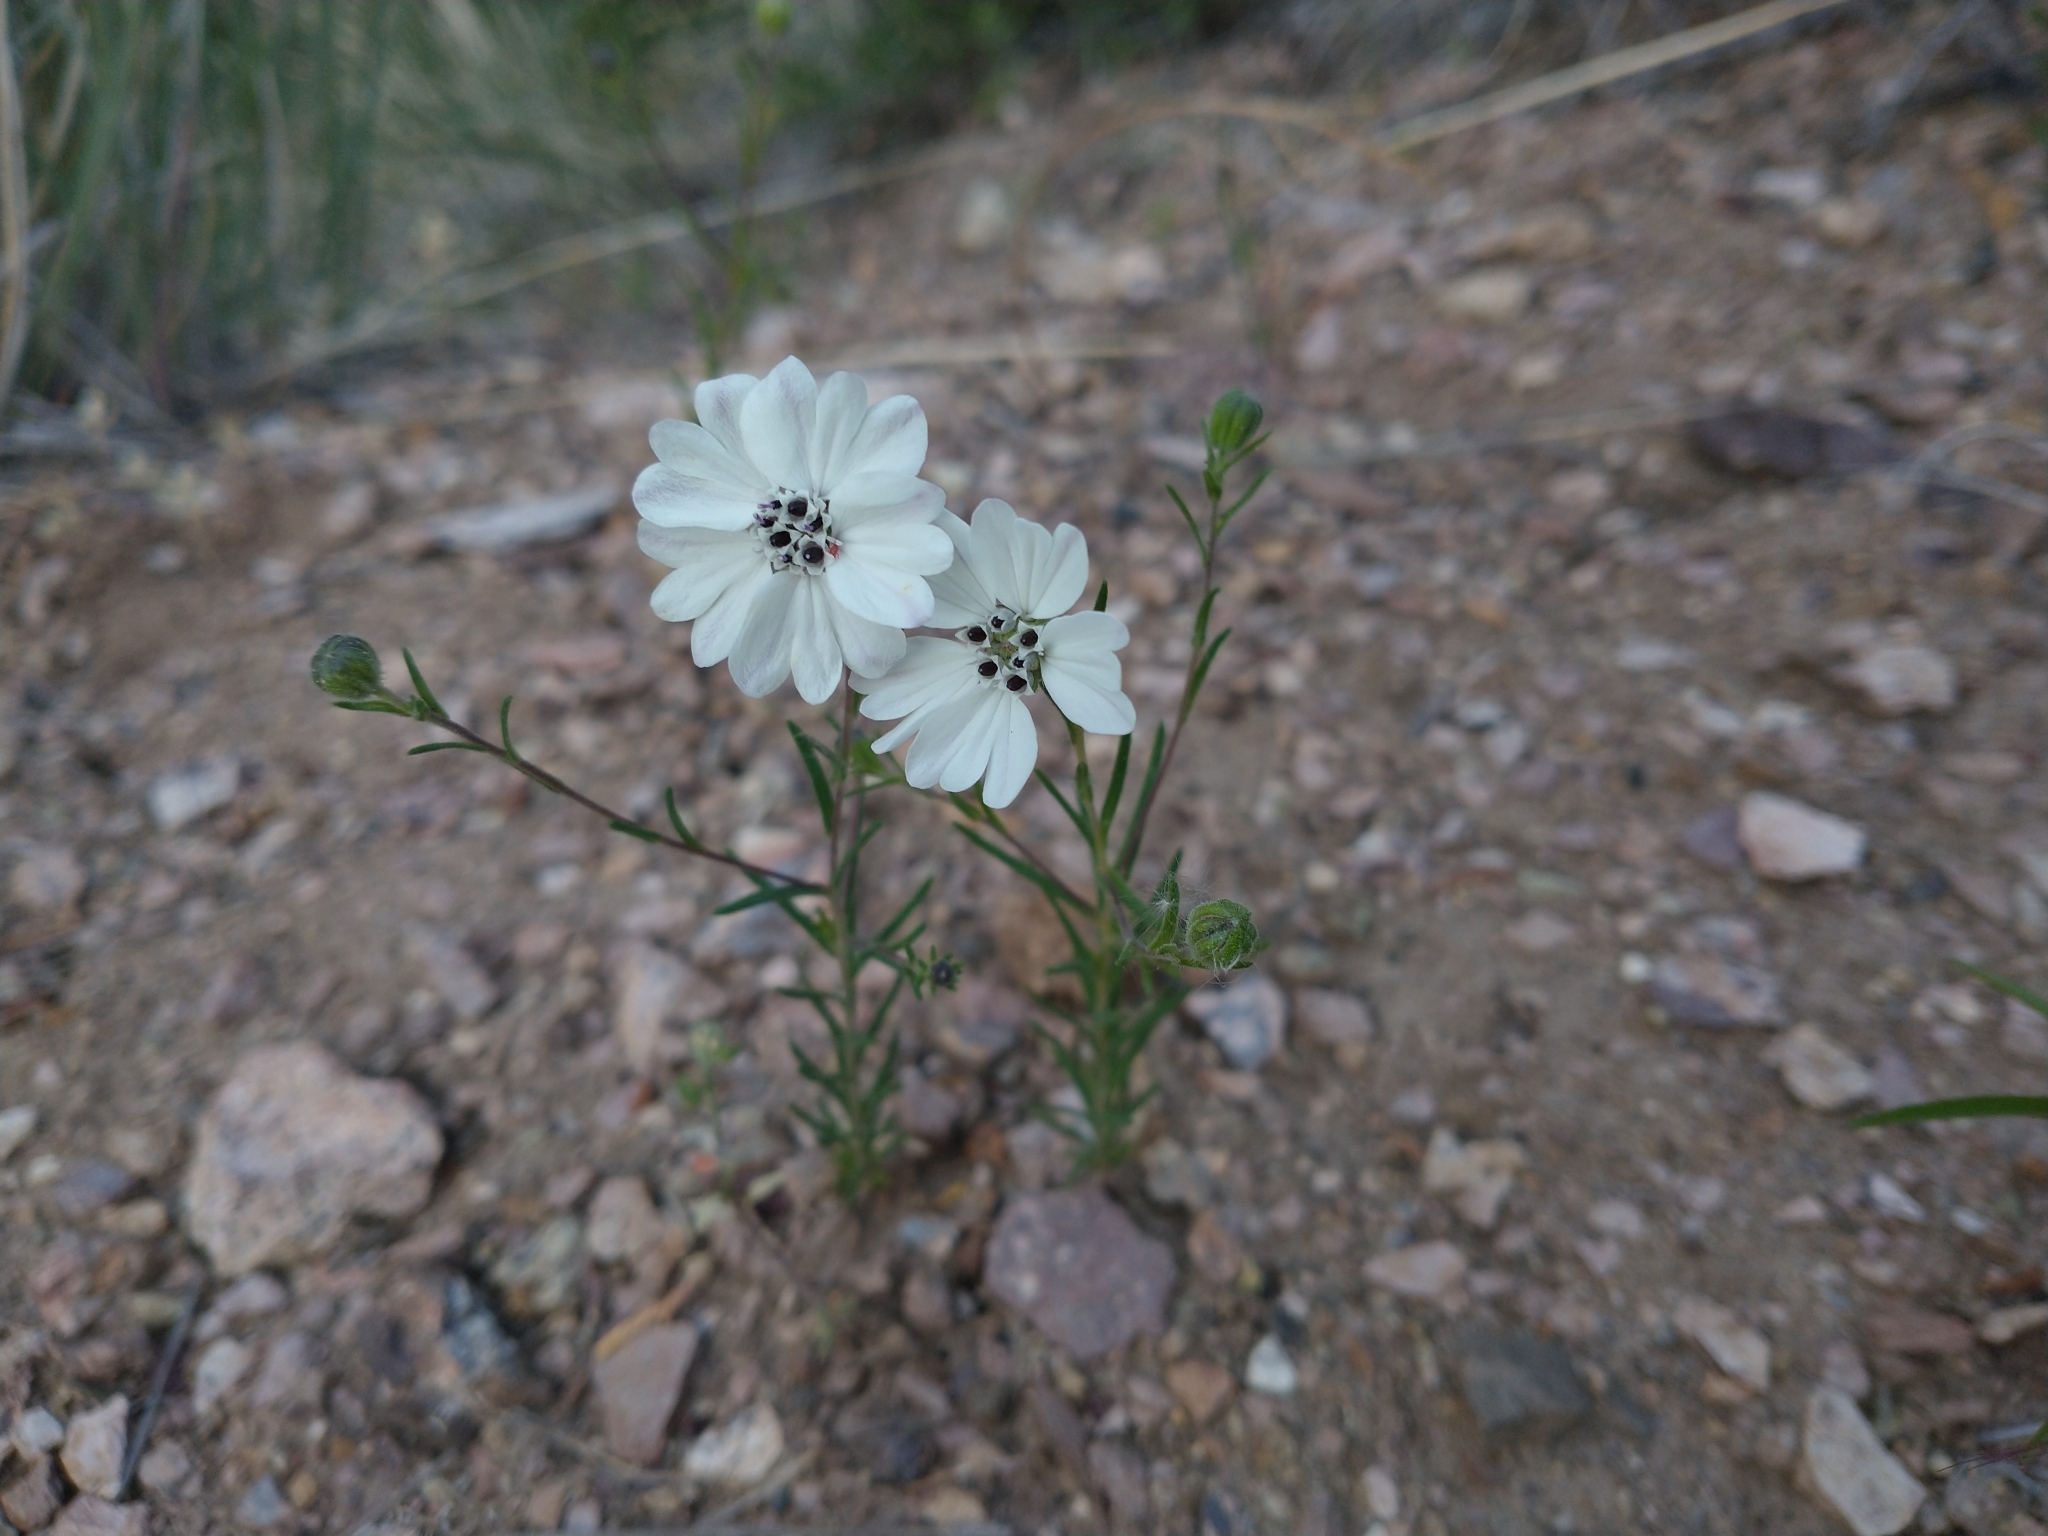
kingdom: Plantae
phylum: Tracheophyta
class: Magnoliopsida
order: Asterales
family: Asteraceae
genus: Blepharipappus
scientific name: Blepharipappus scaber
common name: Rough blepharipappus
